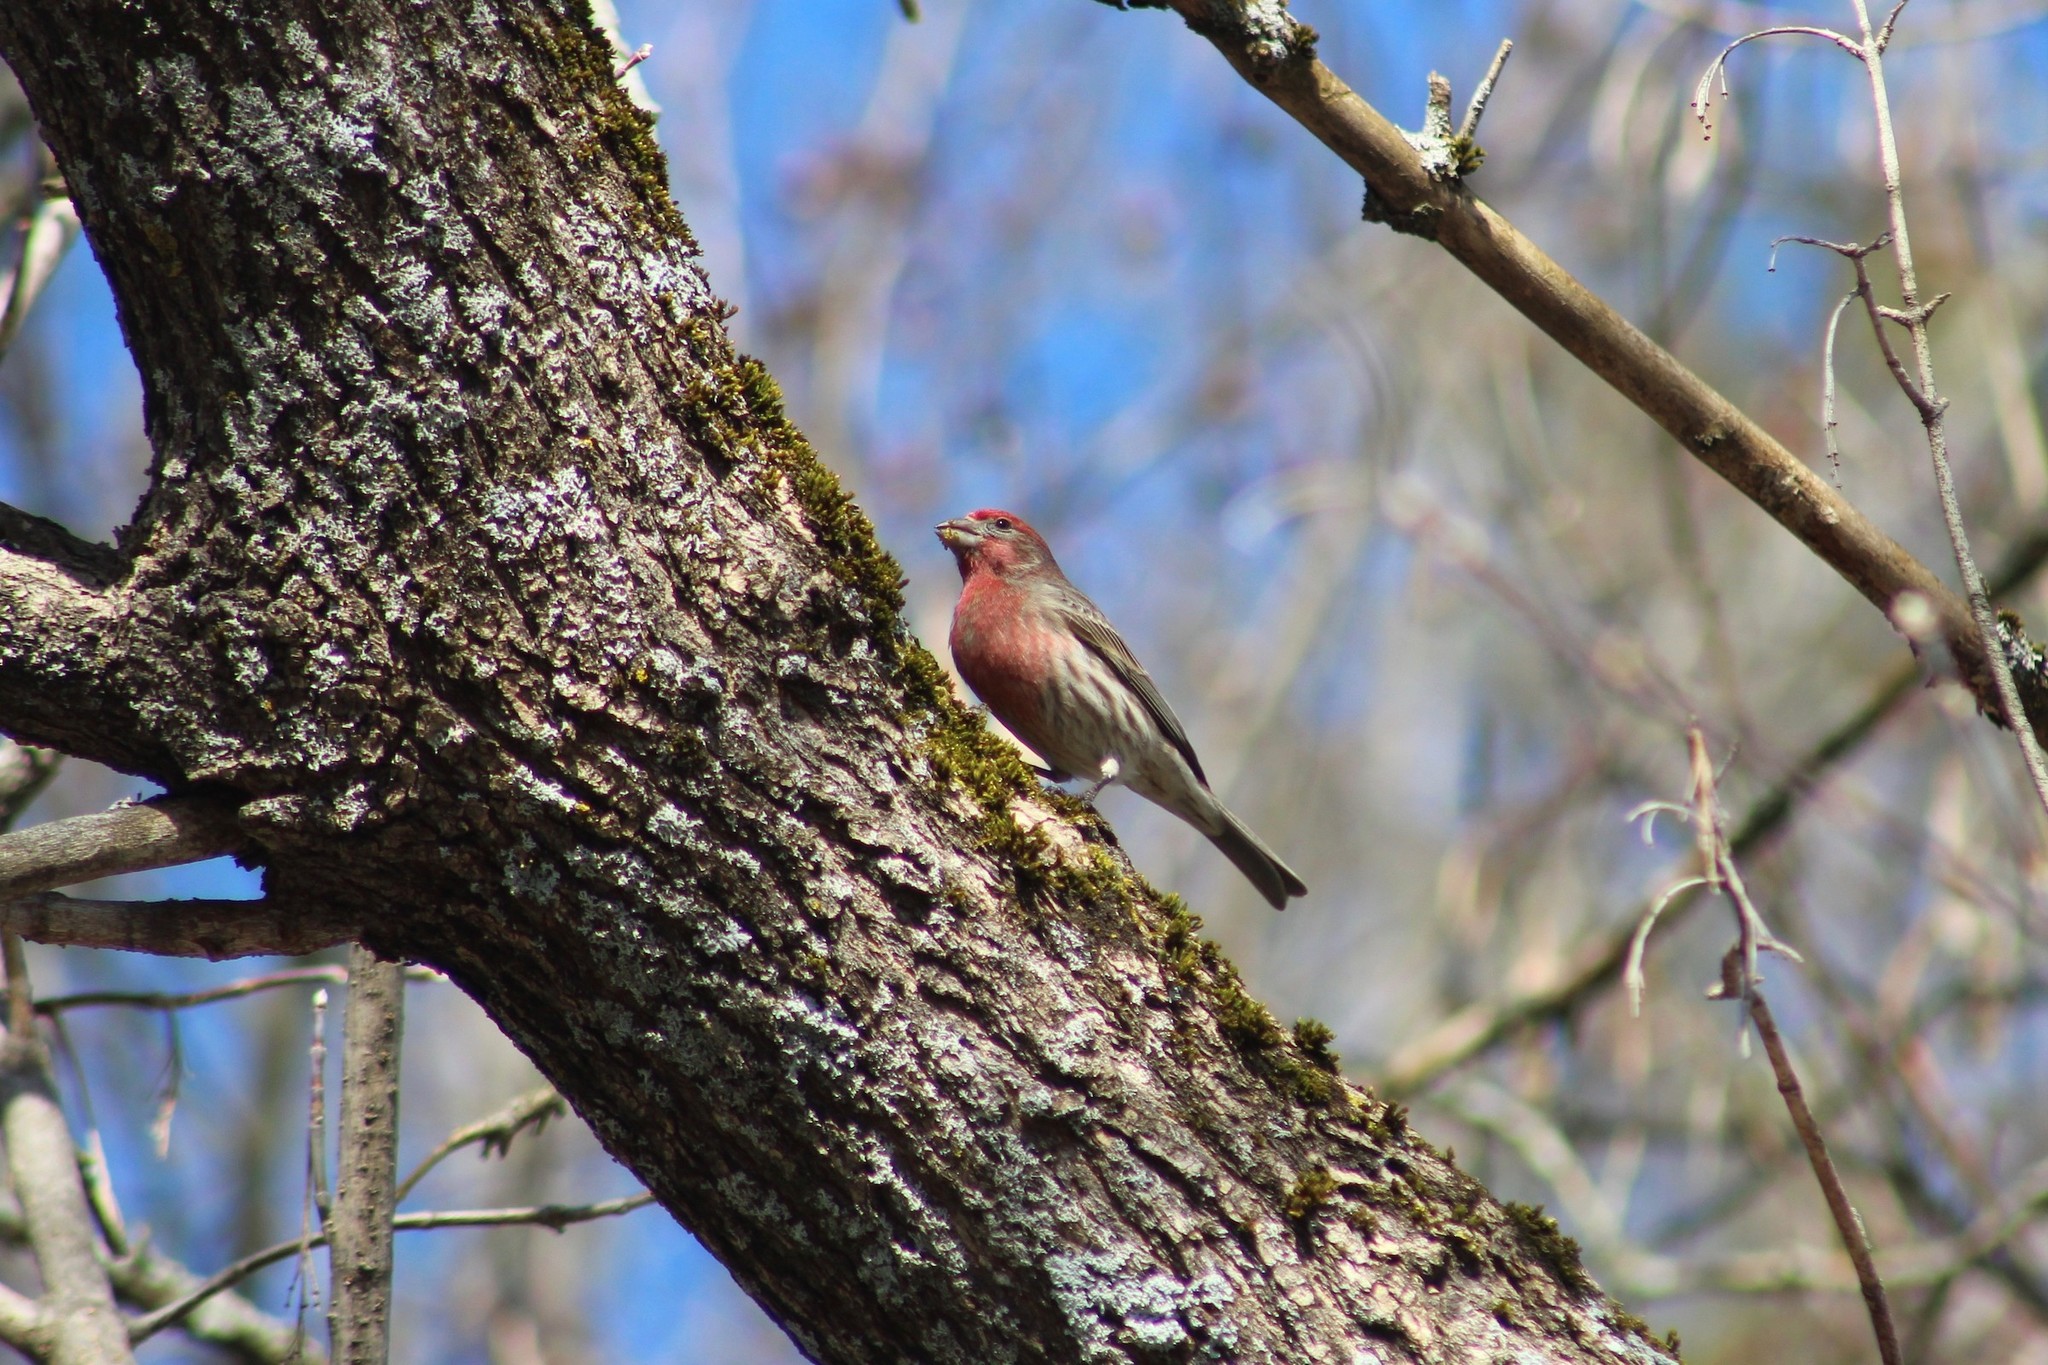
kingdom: Animalia
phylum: Chordata
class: Aves
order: Passeriformes
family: Fringillidae
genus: Haemorhous
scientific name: Haemorhous mexicanus
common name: House finch
